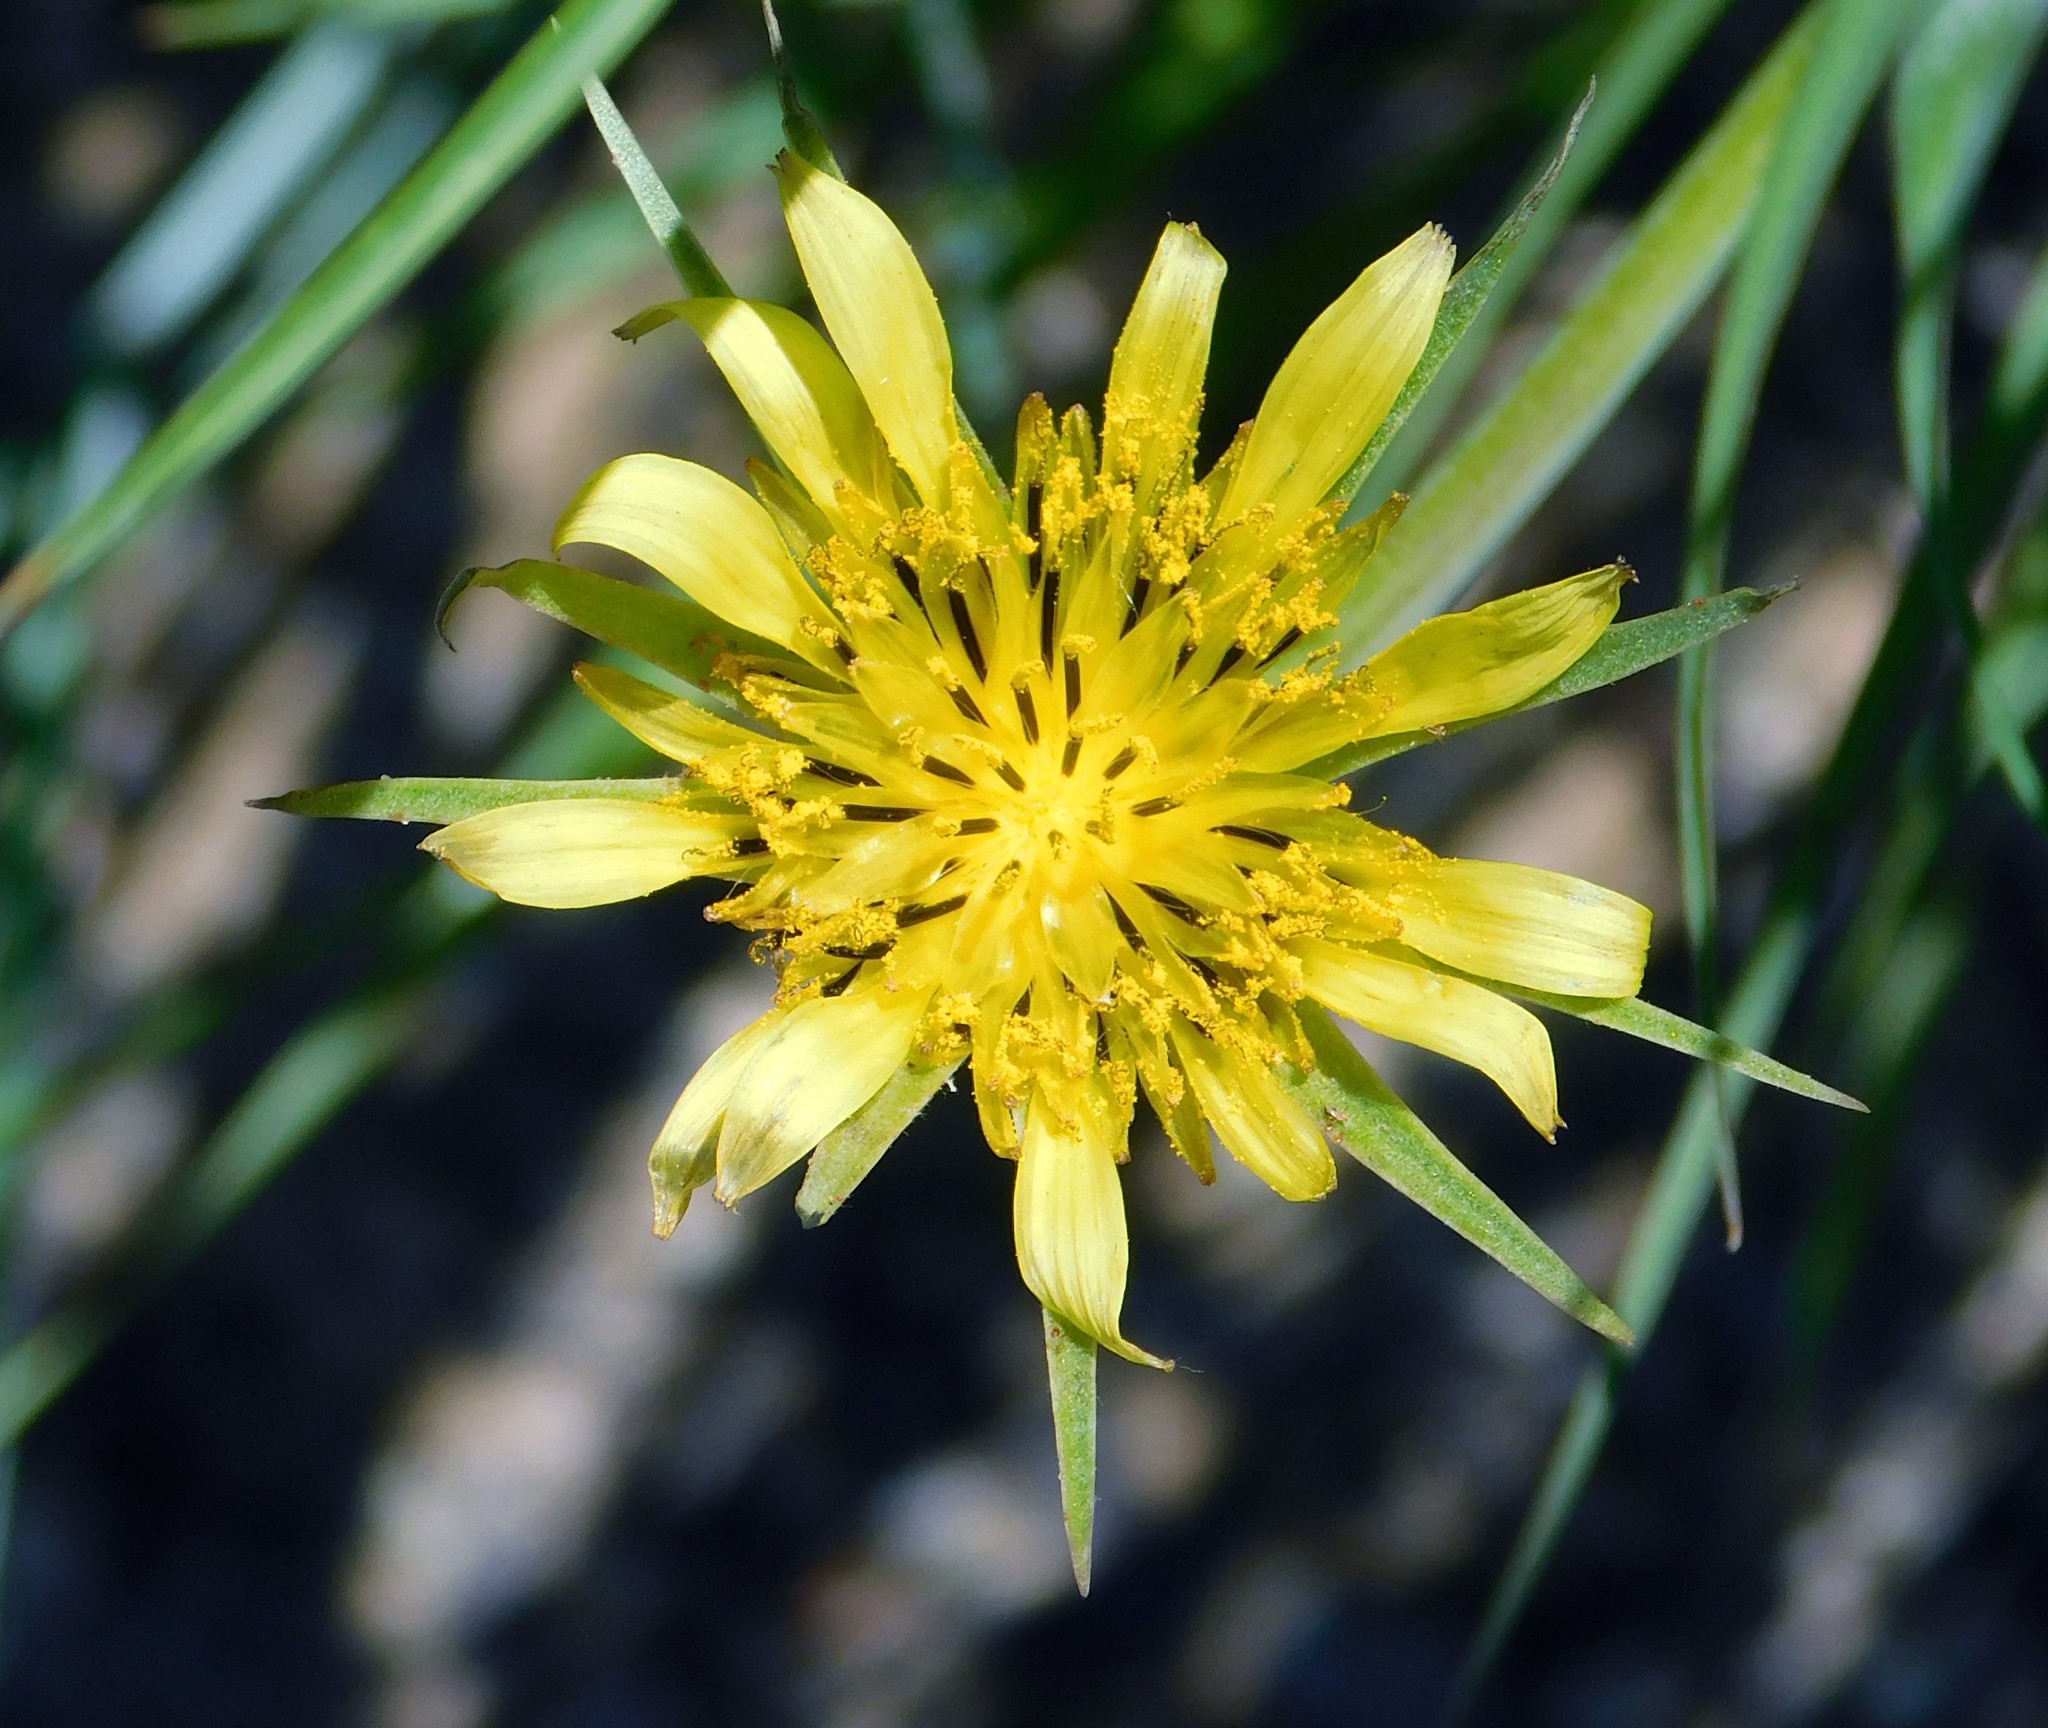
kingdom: Plantae
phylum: Tracheophyta
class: Magnoliopsida
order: Asterales
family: Asteraceae
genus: Tragopogon
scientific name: Tragopogon dubius
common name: Yellow salsify
